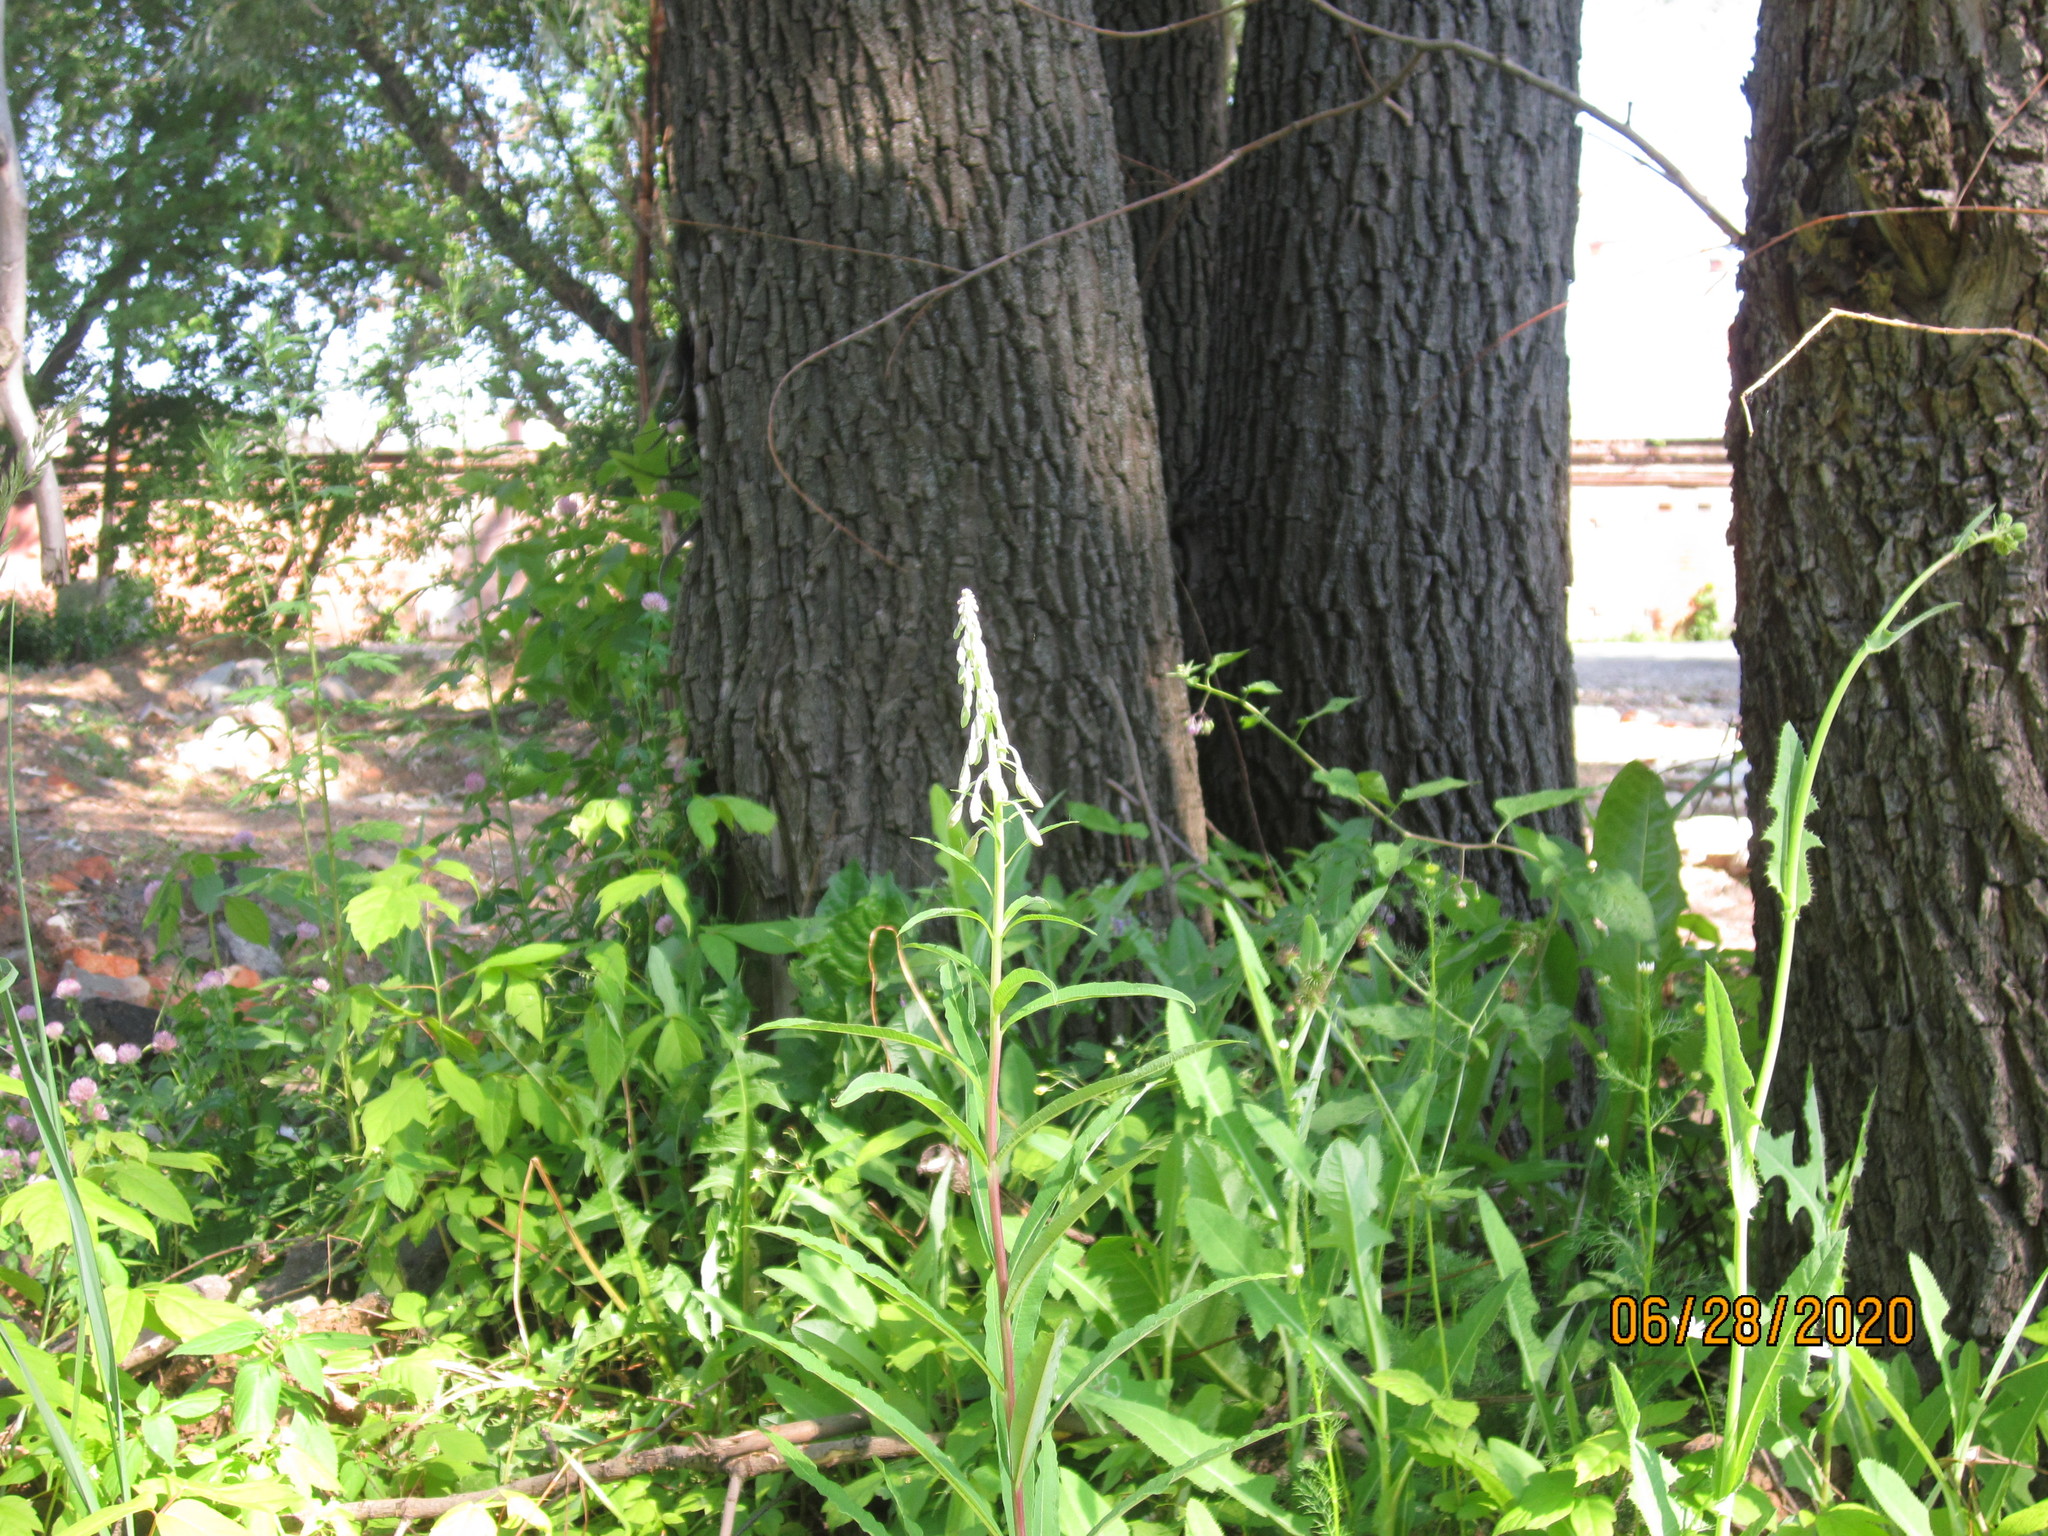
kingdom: Plantae
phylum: Tracheophyta
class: Magnoliopsida
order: Myrtales
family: Onagraceae
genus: Chamaenerion
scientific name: Chamaenerion angustifolium
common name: Fireweed
